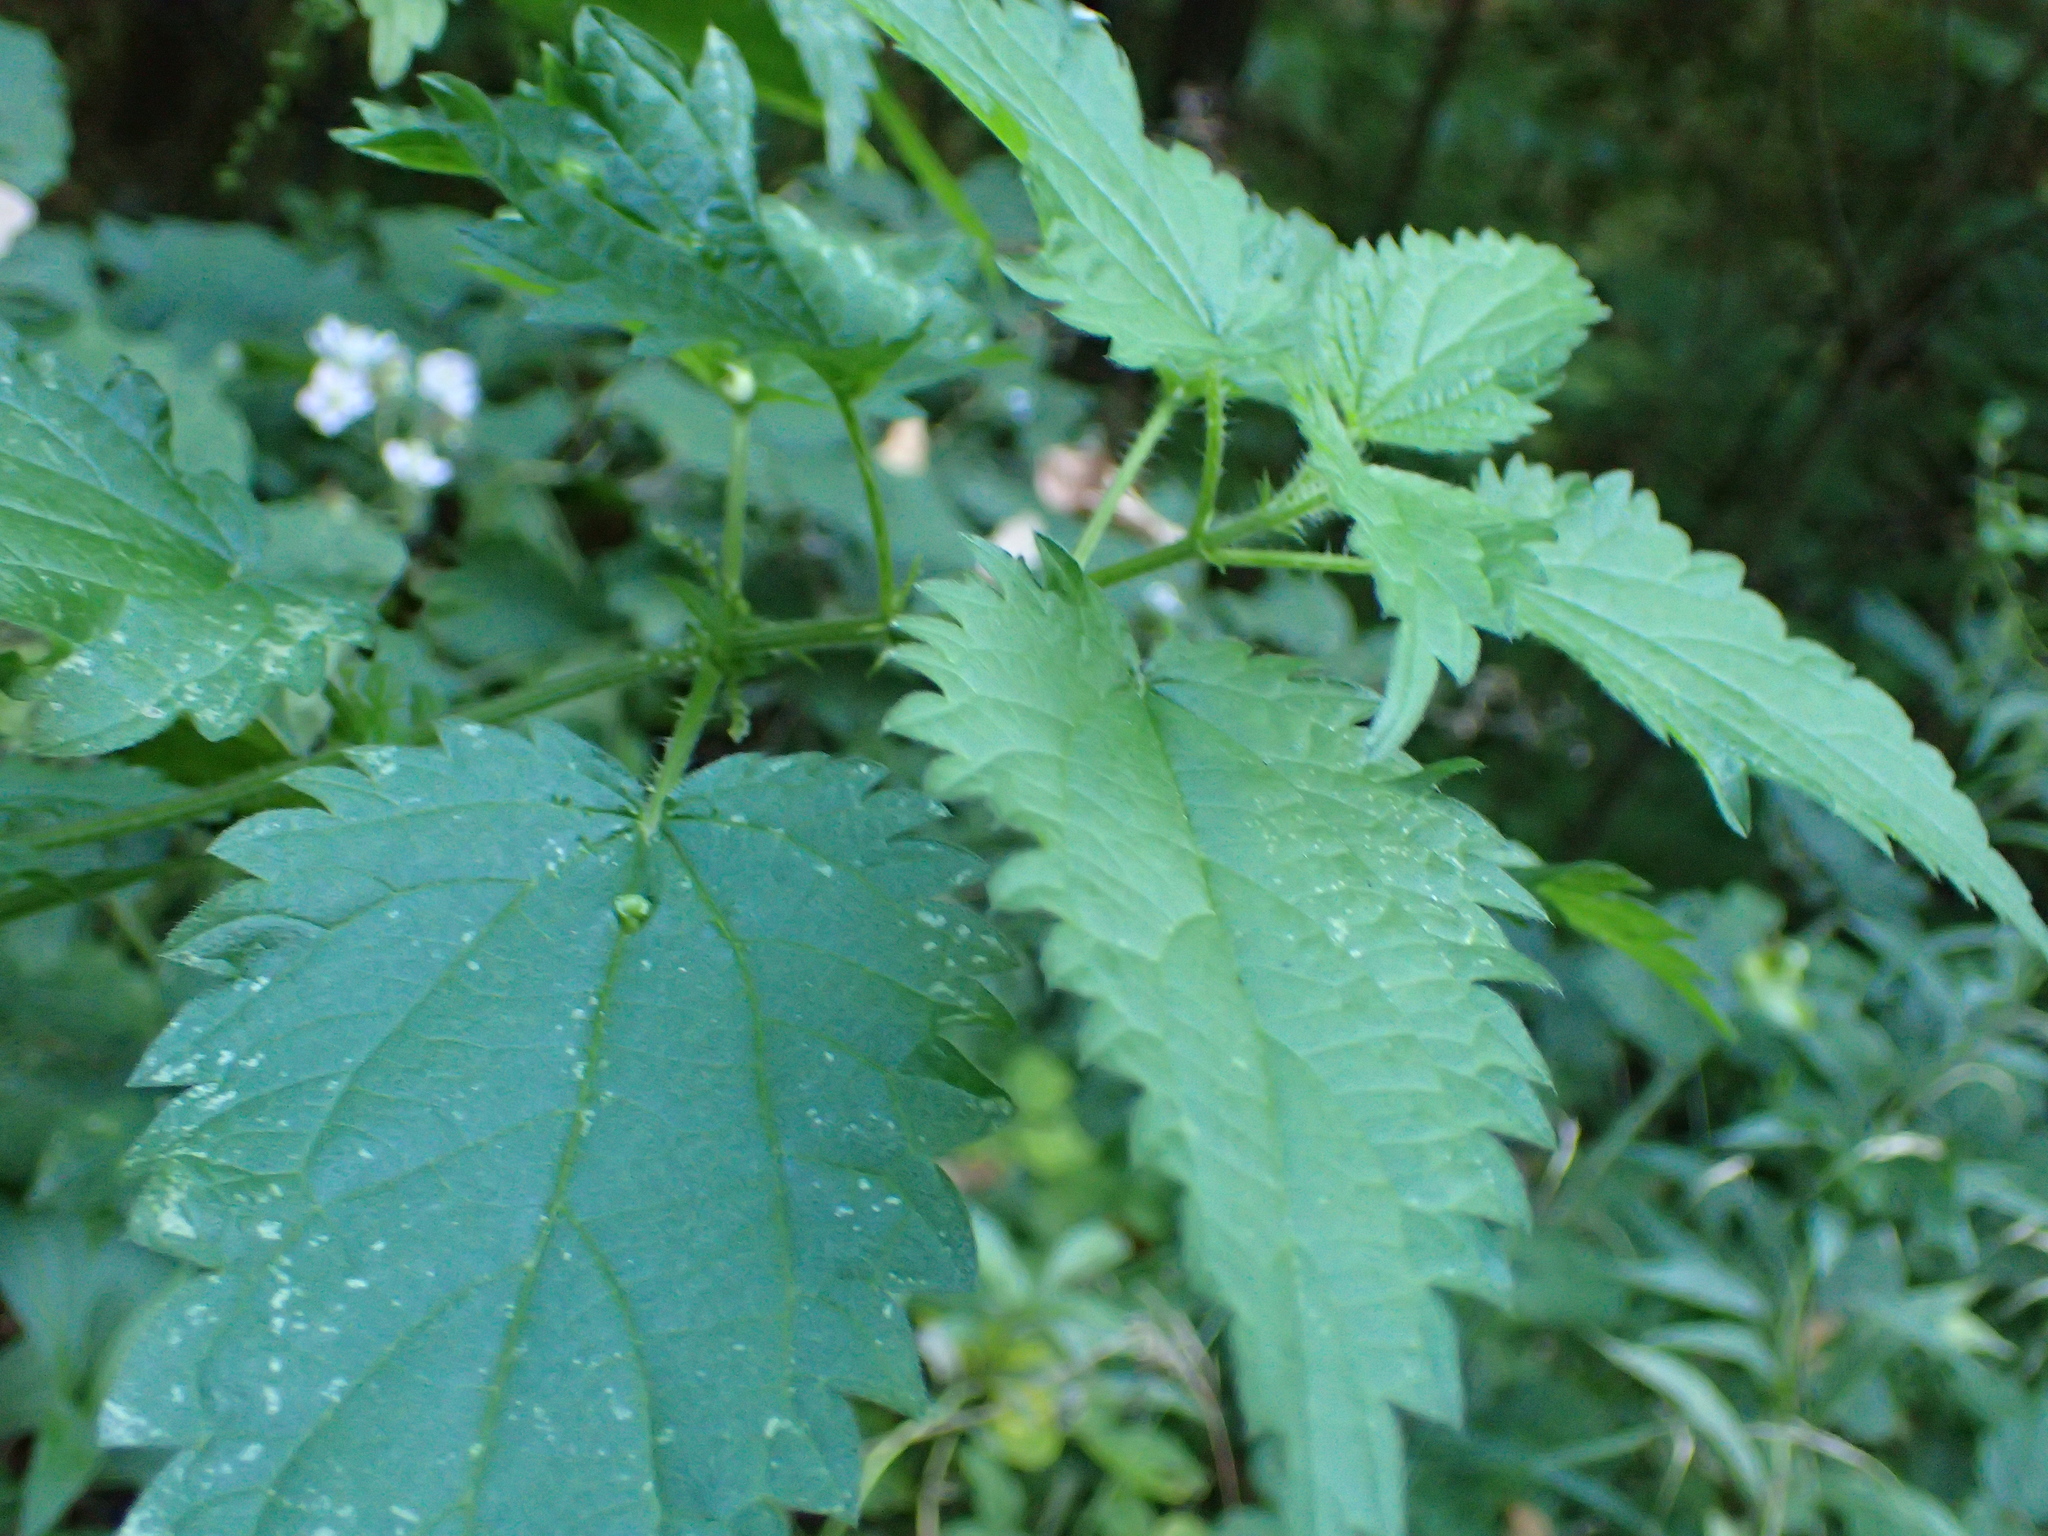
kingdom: Plantae
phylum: Tracheophyta
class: Magnoliopsida
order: Rosales
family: Urticaceae
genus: Urtica
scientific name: Urtica dioica
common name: Common nettle
